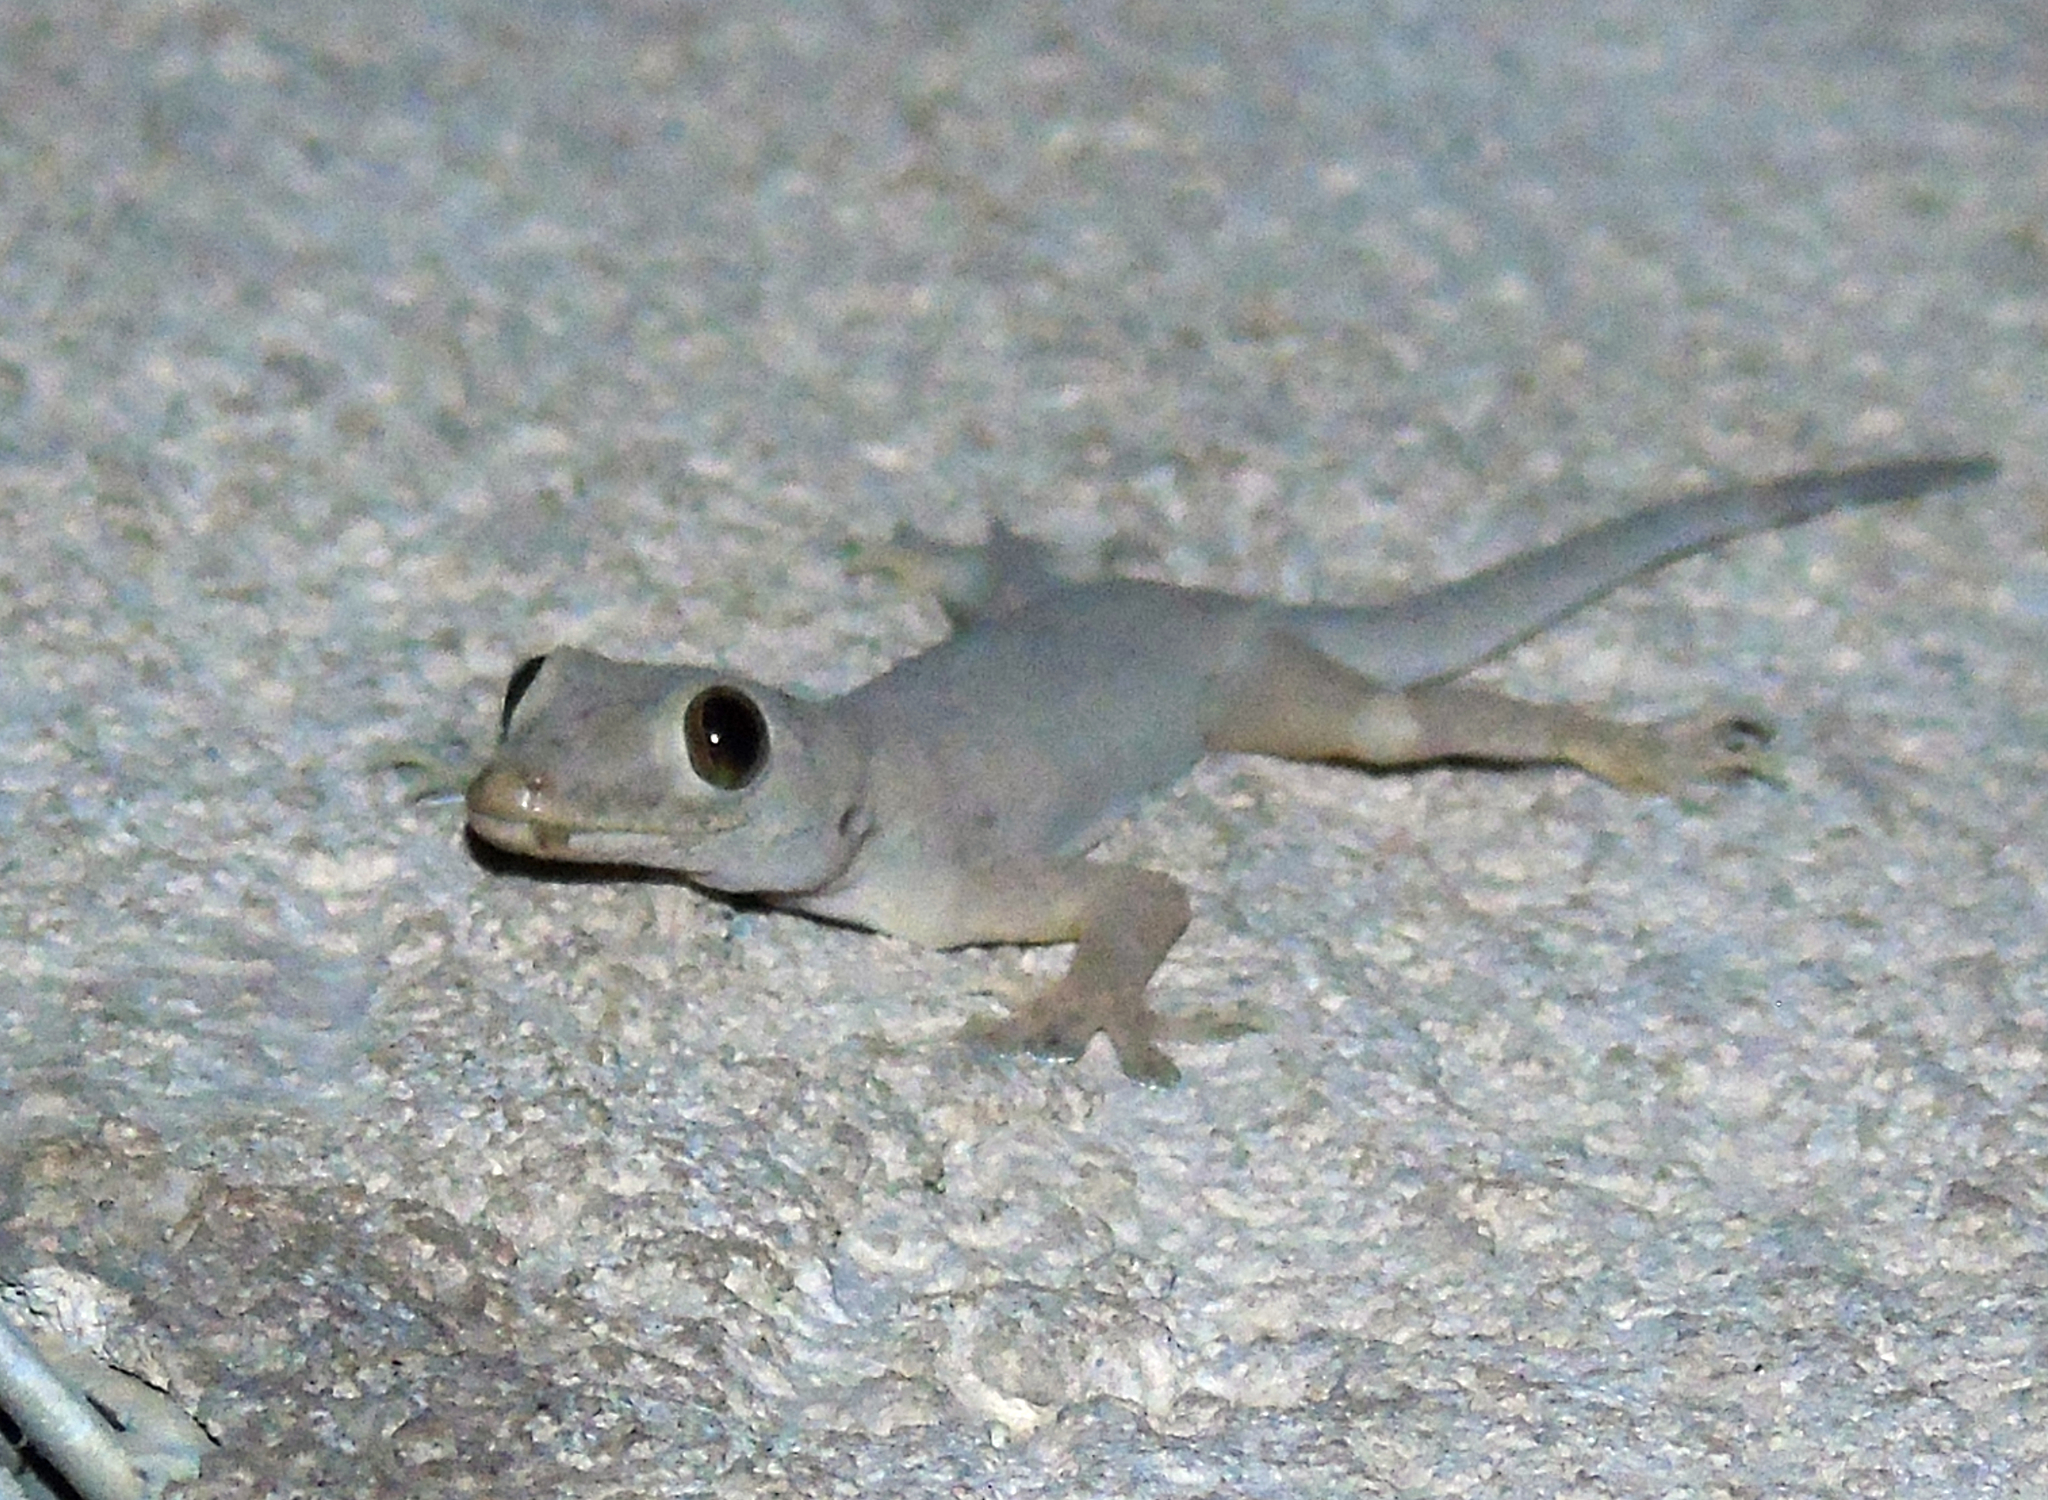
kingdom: Animalia
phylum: Chordata
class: Squamata
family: Gekkonidae
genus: Hemidactylus
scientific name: Hemidactylus flaviviridis
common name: Northern house gecko
